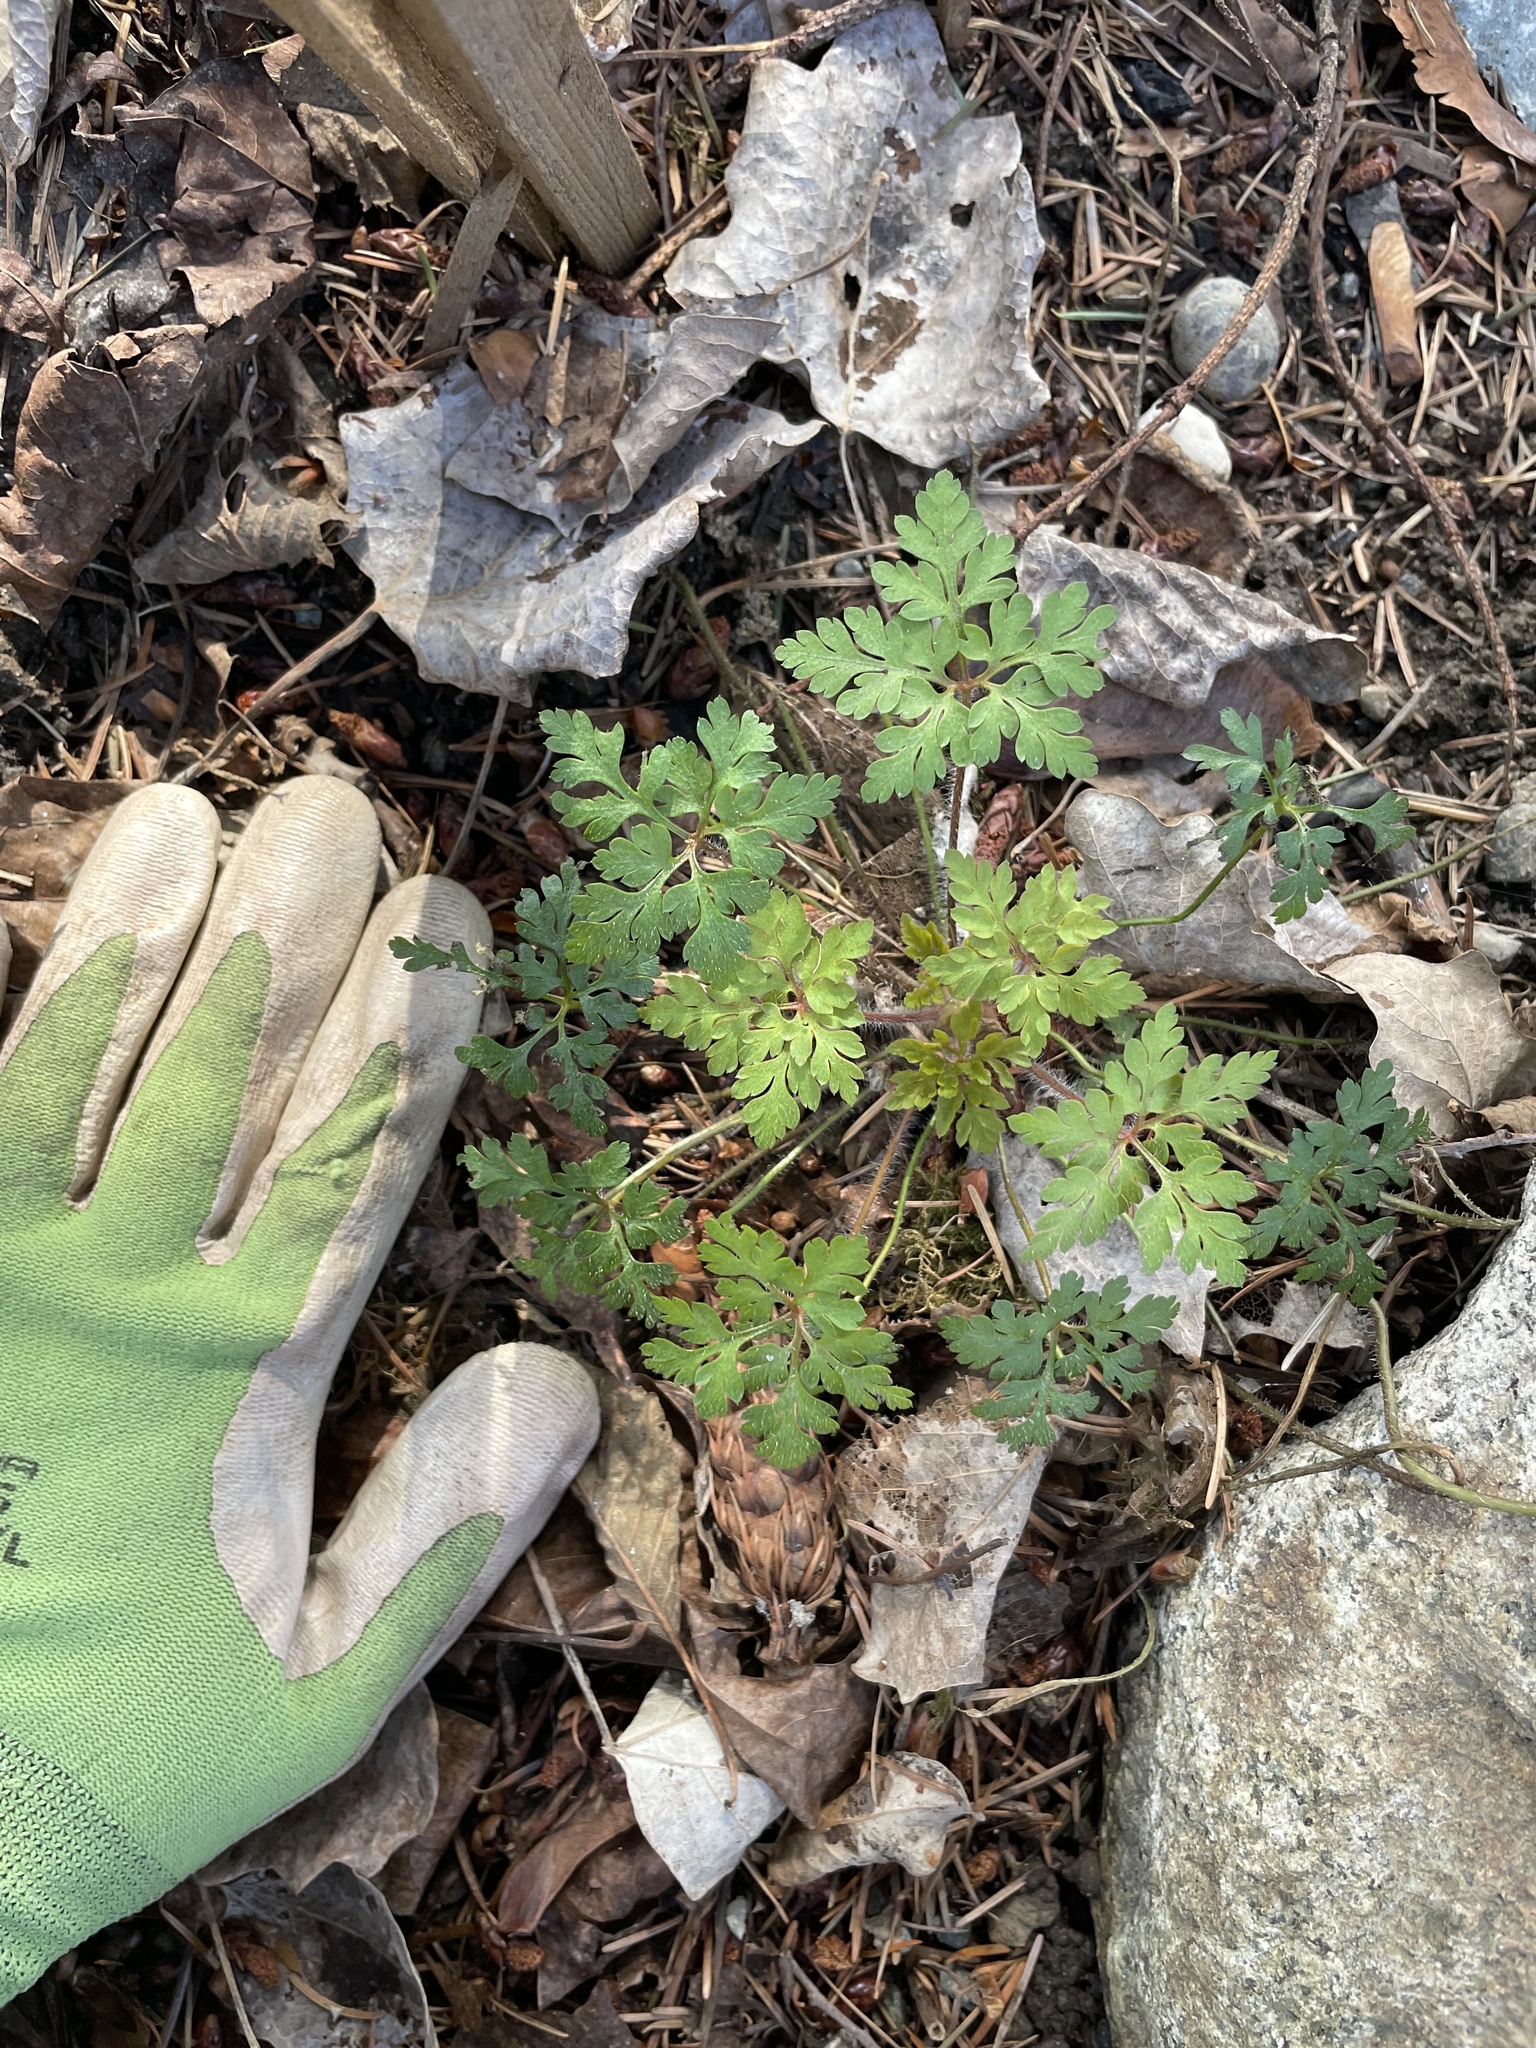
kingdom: Plantae
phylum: Tracheophyta
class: Magnoliopsida
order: Geraniales
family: Geraniaceae
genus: Geranium
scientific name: Geranium robertianum
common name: Herb-robert
